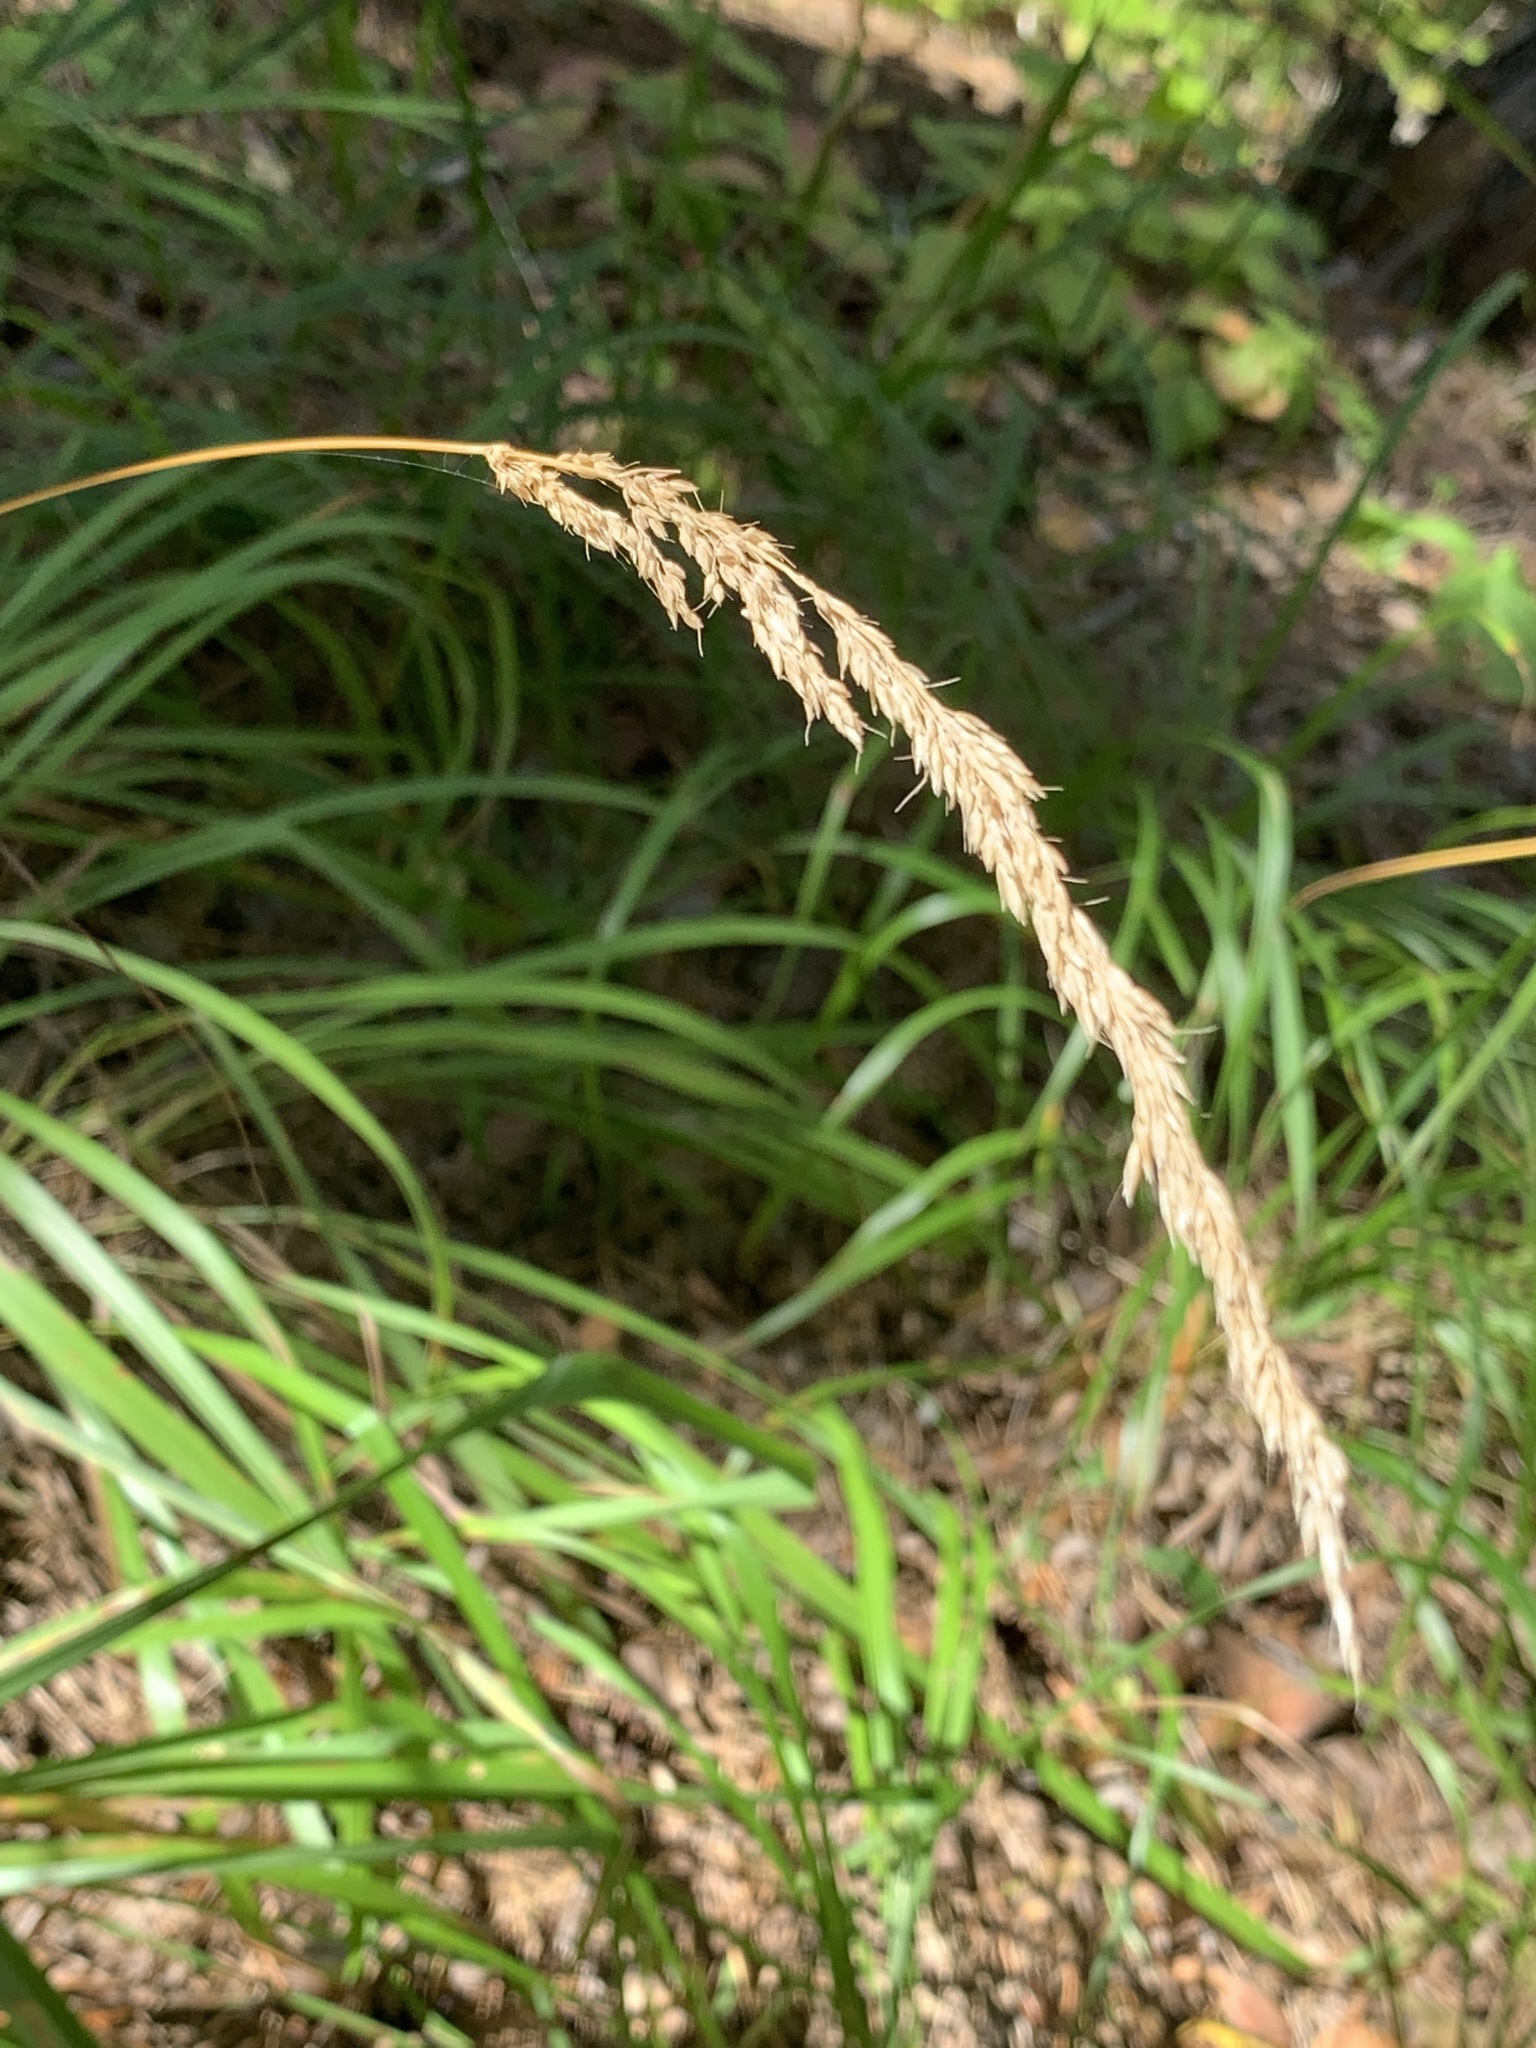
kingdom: Plantae
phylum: Tracheophyta
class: Liliopsida
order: Poales
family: Poaceae
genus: Calamagrostis
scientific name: Calamagrostis arundinacea
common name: Metskastik
